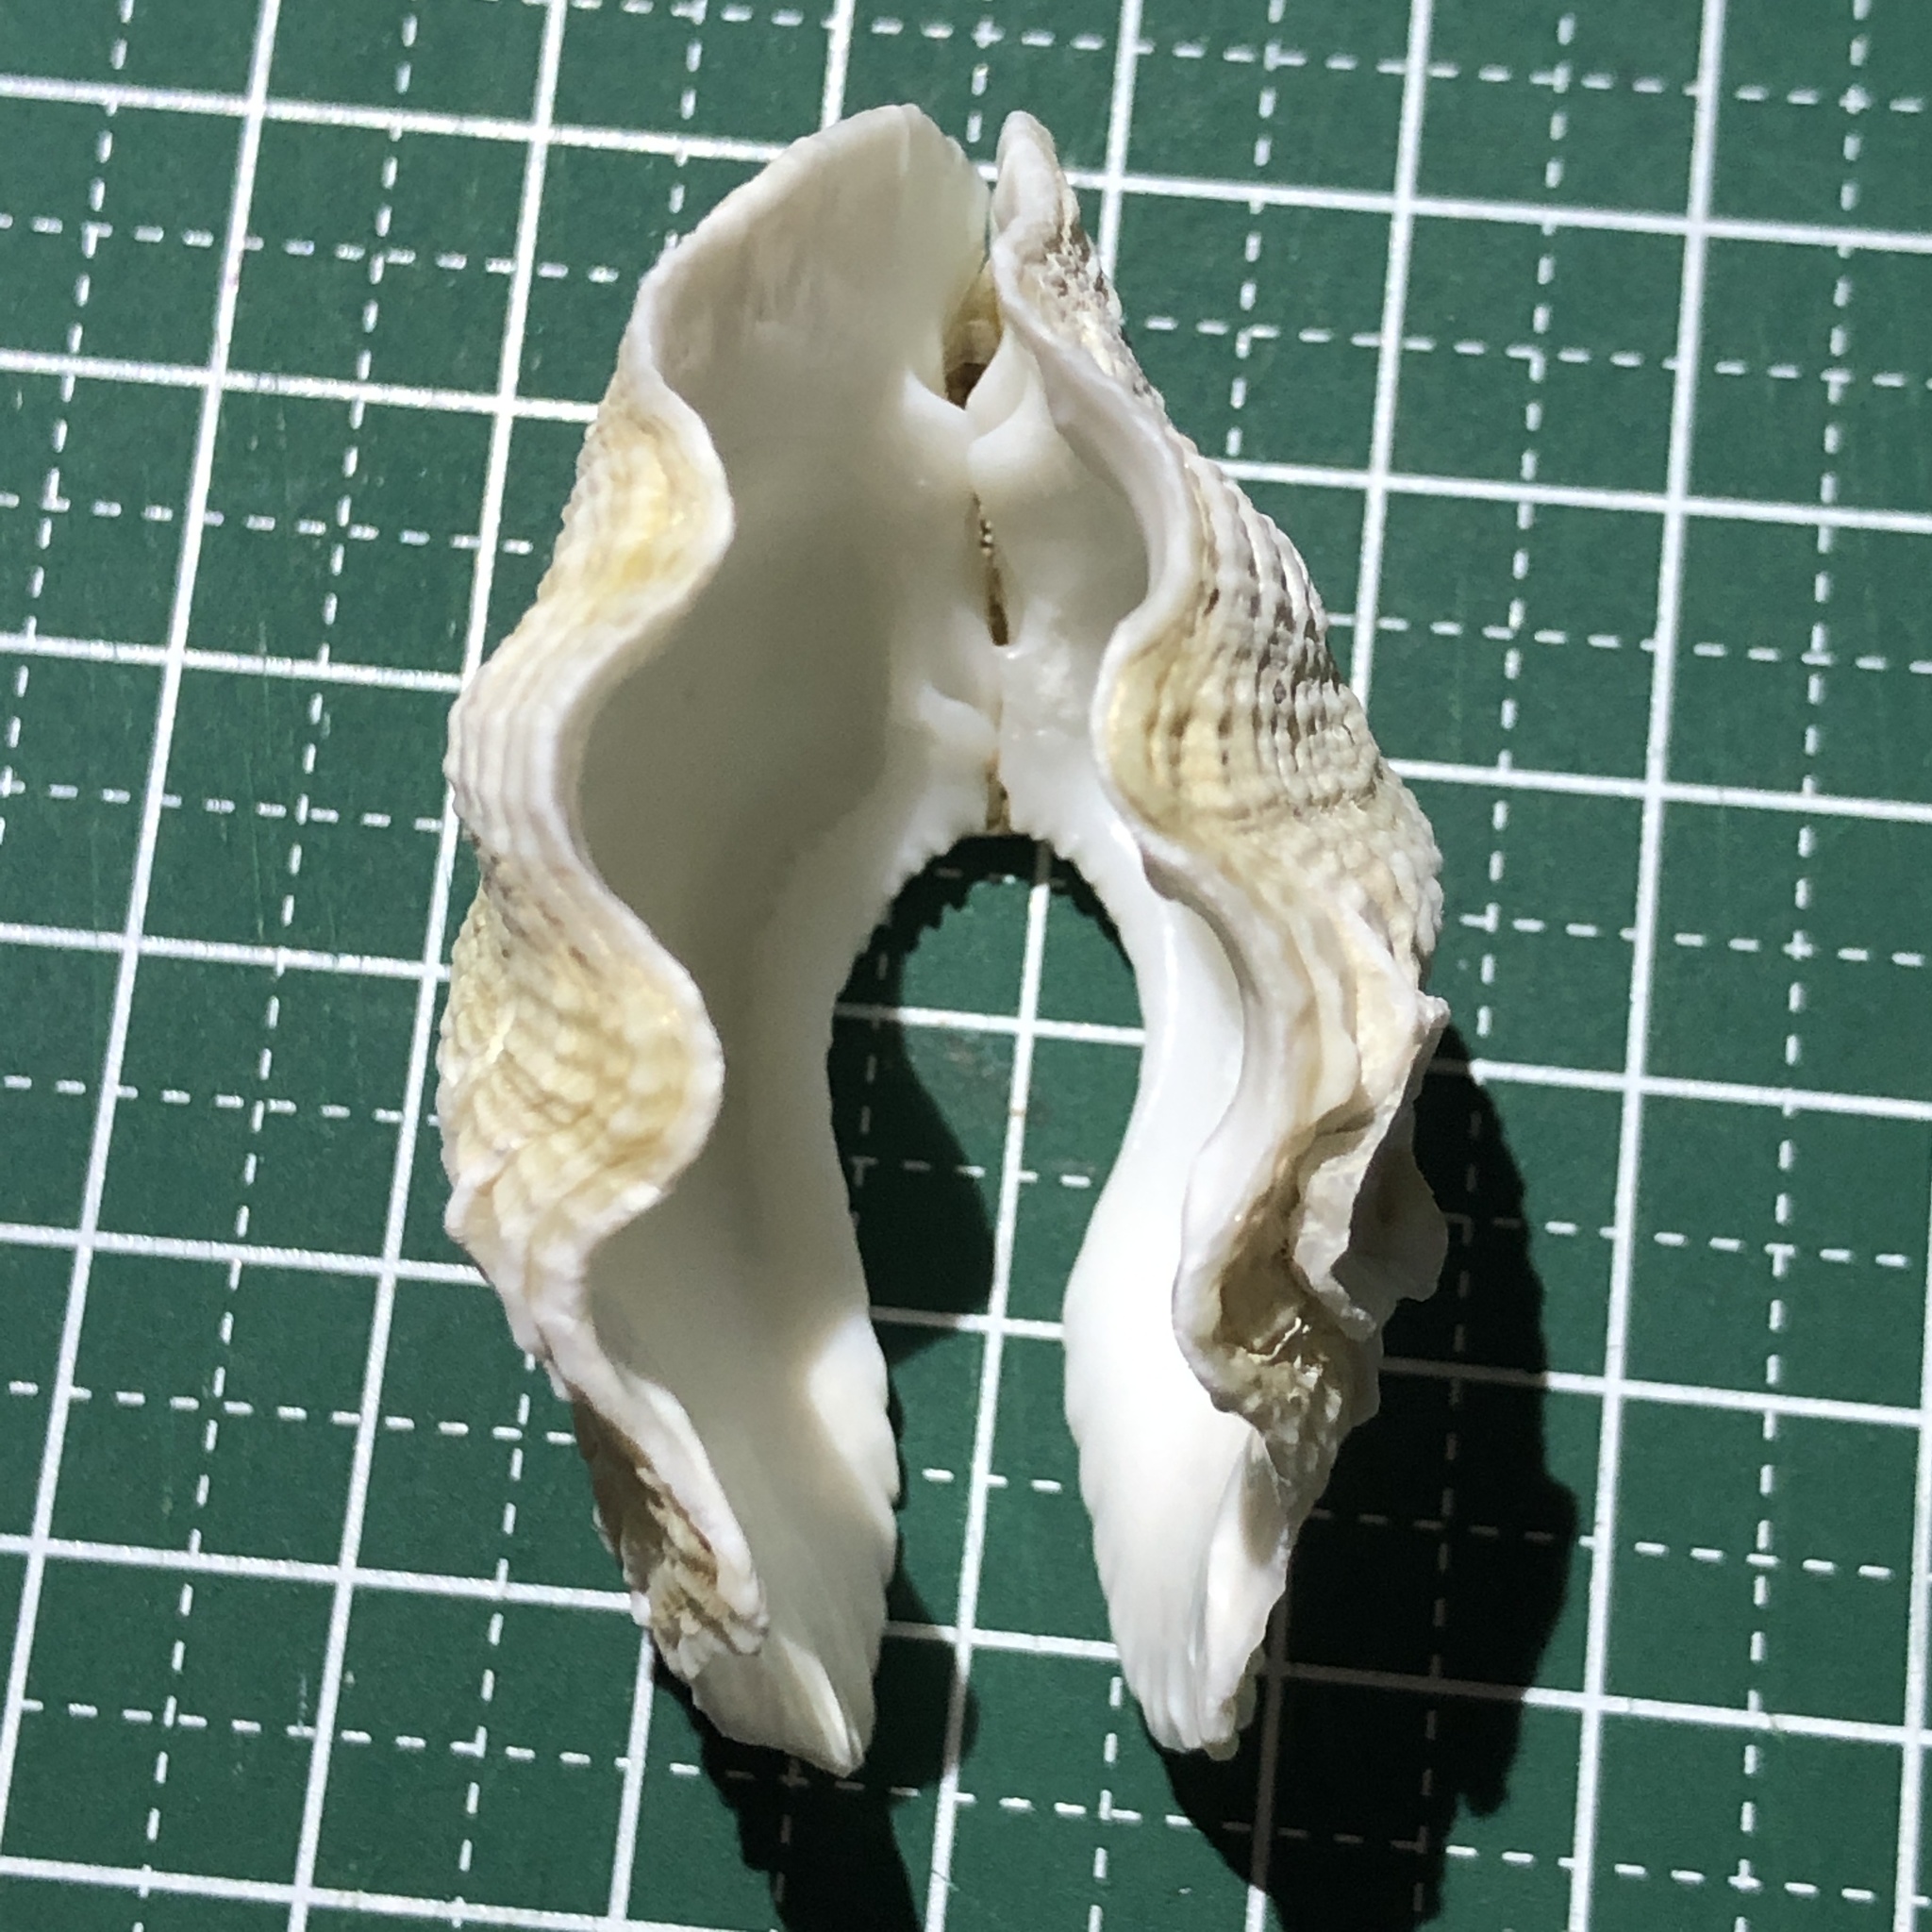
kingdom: Animalia
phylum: Mollusca
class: Bivalvia
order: Cardiida
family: Cardiidae
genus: Tridacna
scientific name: Tridacna crocea
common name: Boring clam
